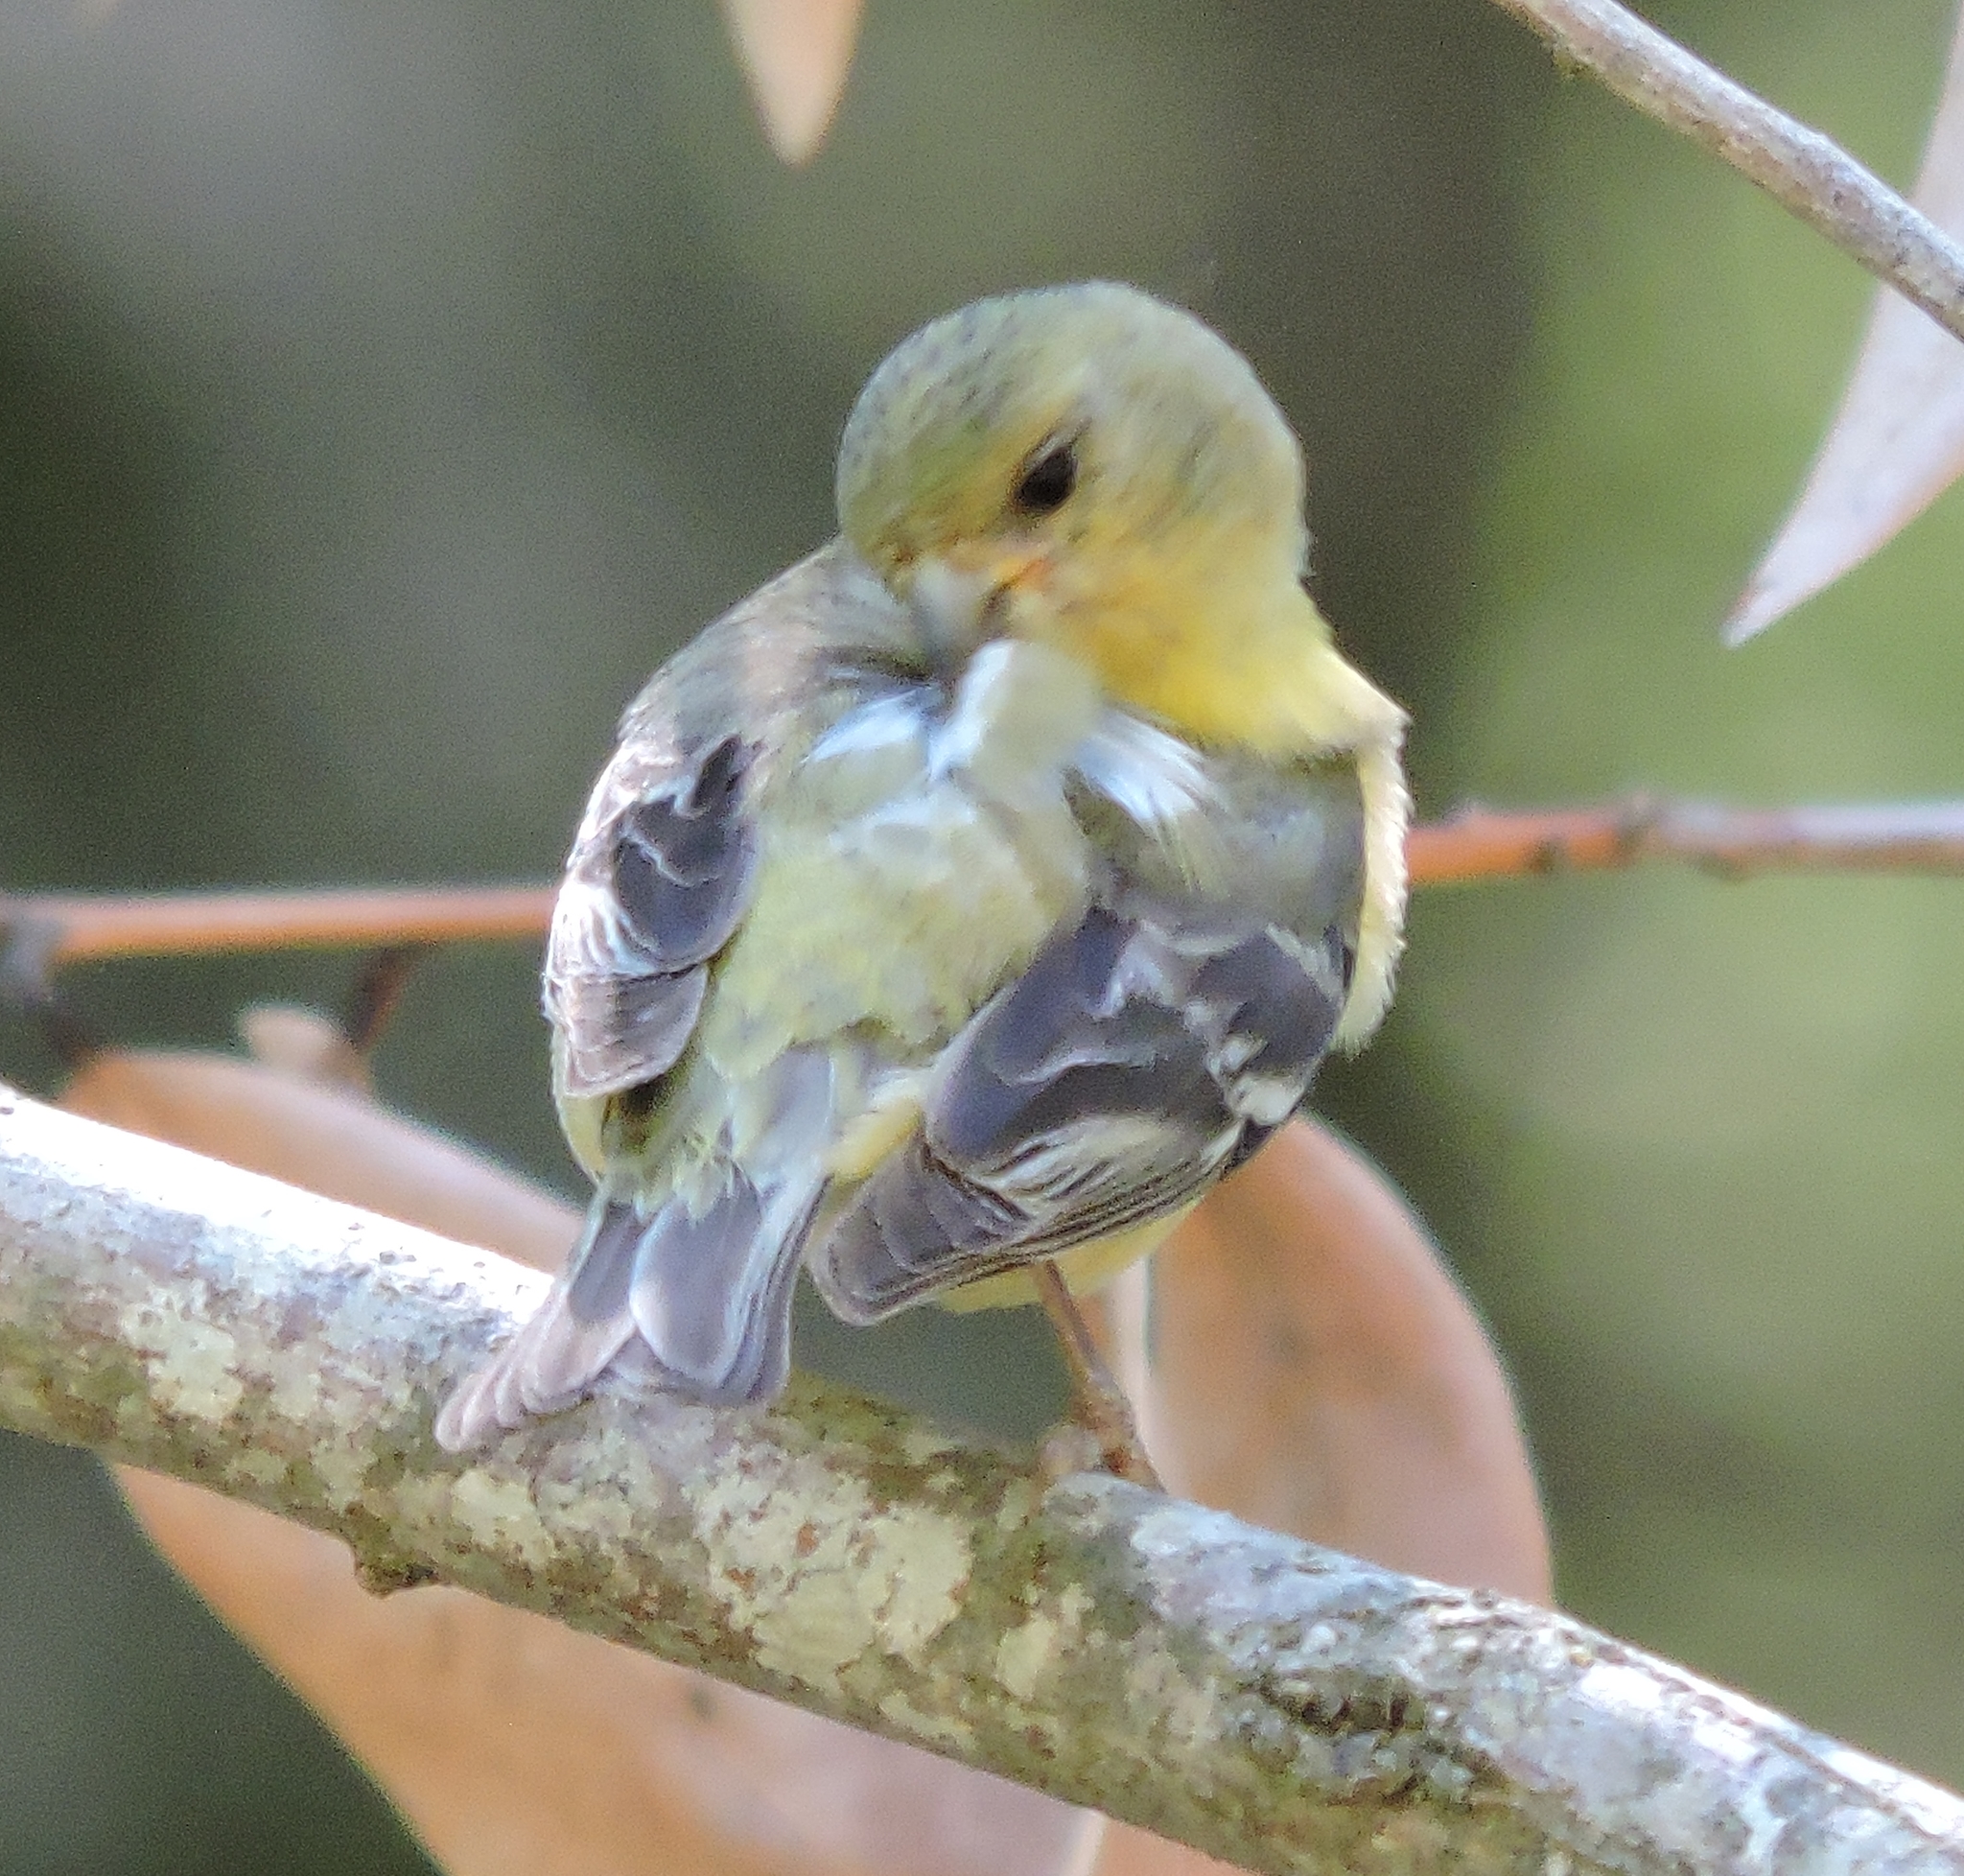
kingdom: Animalia
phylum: Chordata
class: Aves
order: Passeriformes
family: Fringillidae
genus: Spinus
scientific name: Spinus psaltria
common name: Lesser goldfinch
